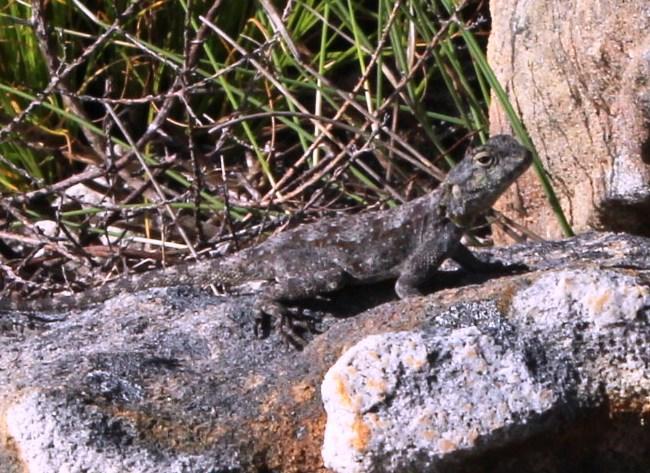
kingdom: Animalia
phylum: Chordata
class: Squamata
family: Agamidae
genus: Agama
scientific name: Agama atra
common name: Southern african rock agama
